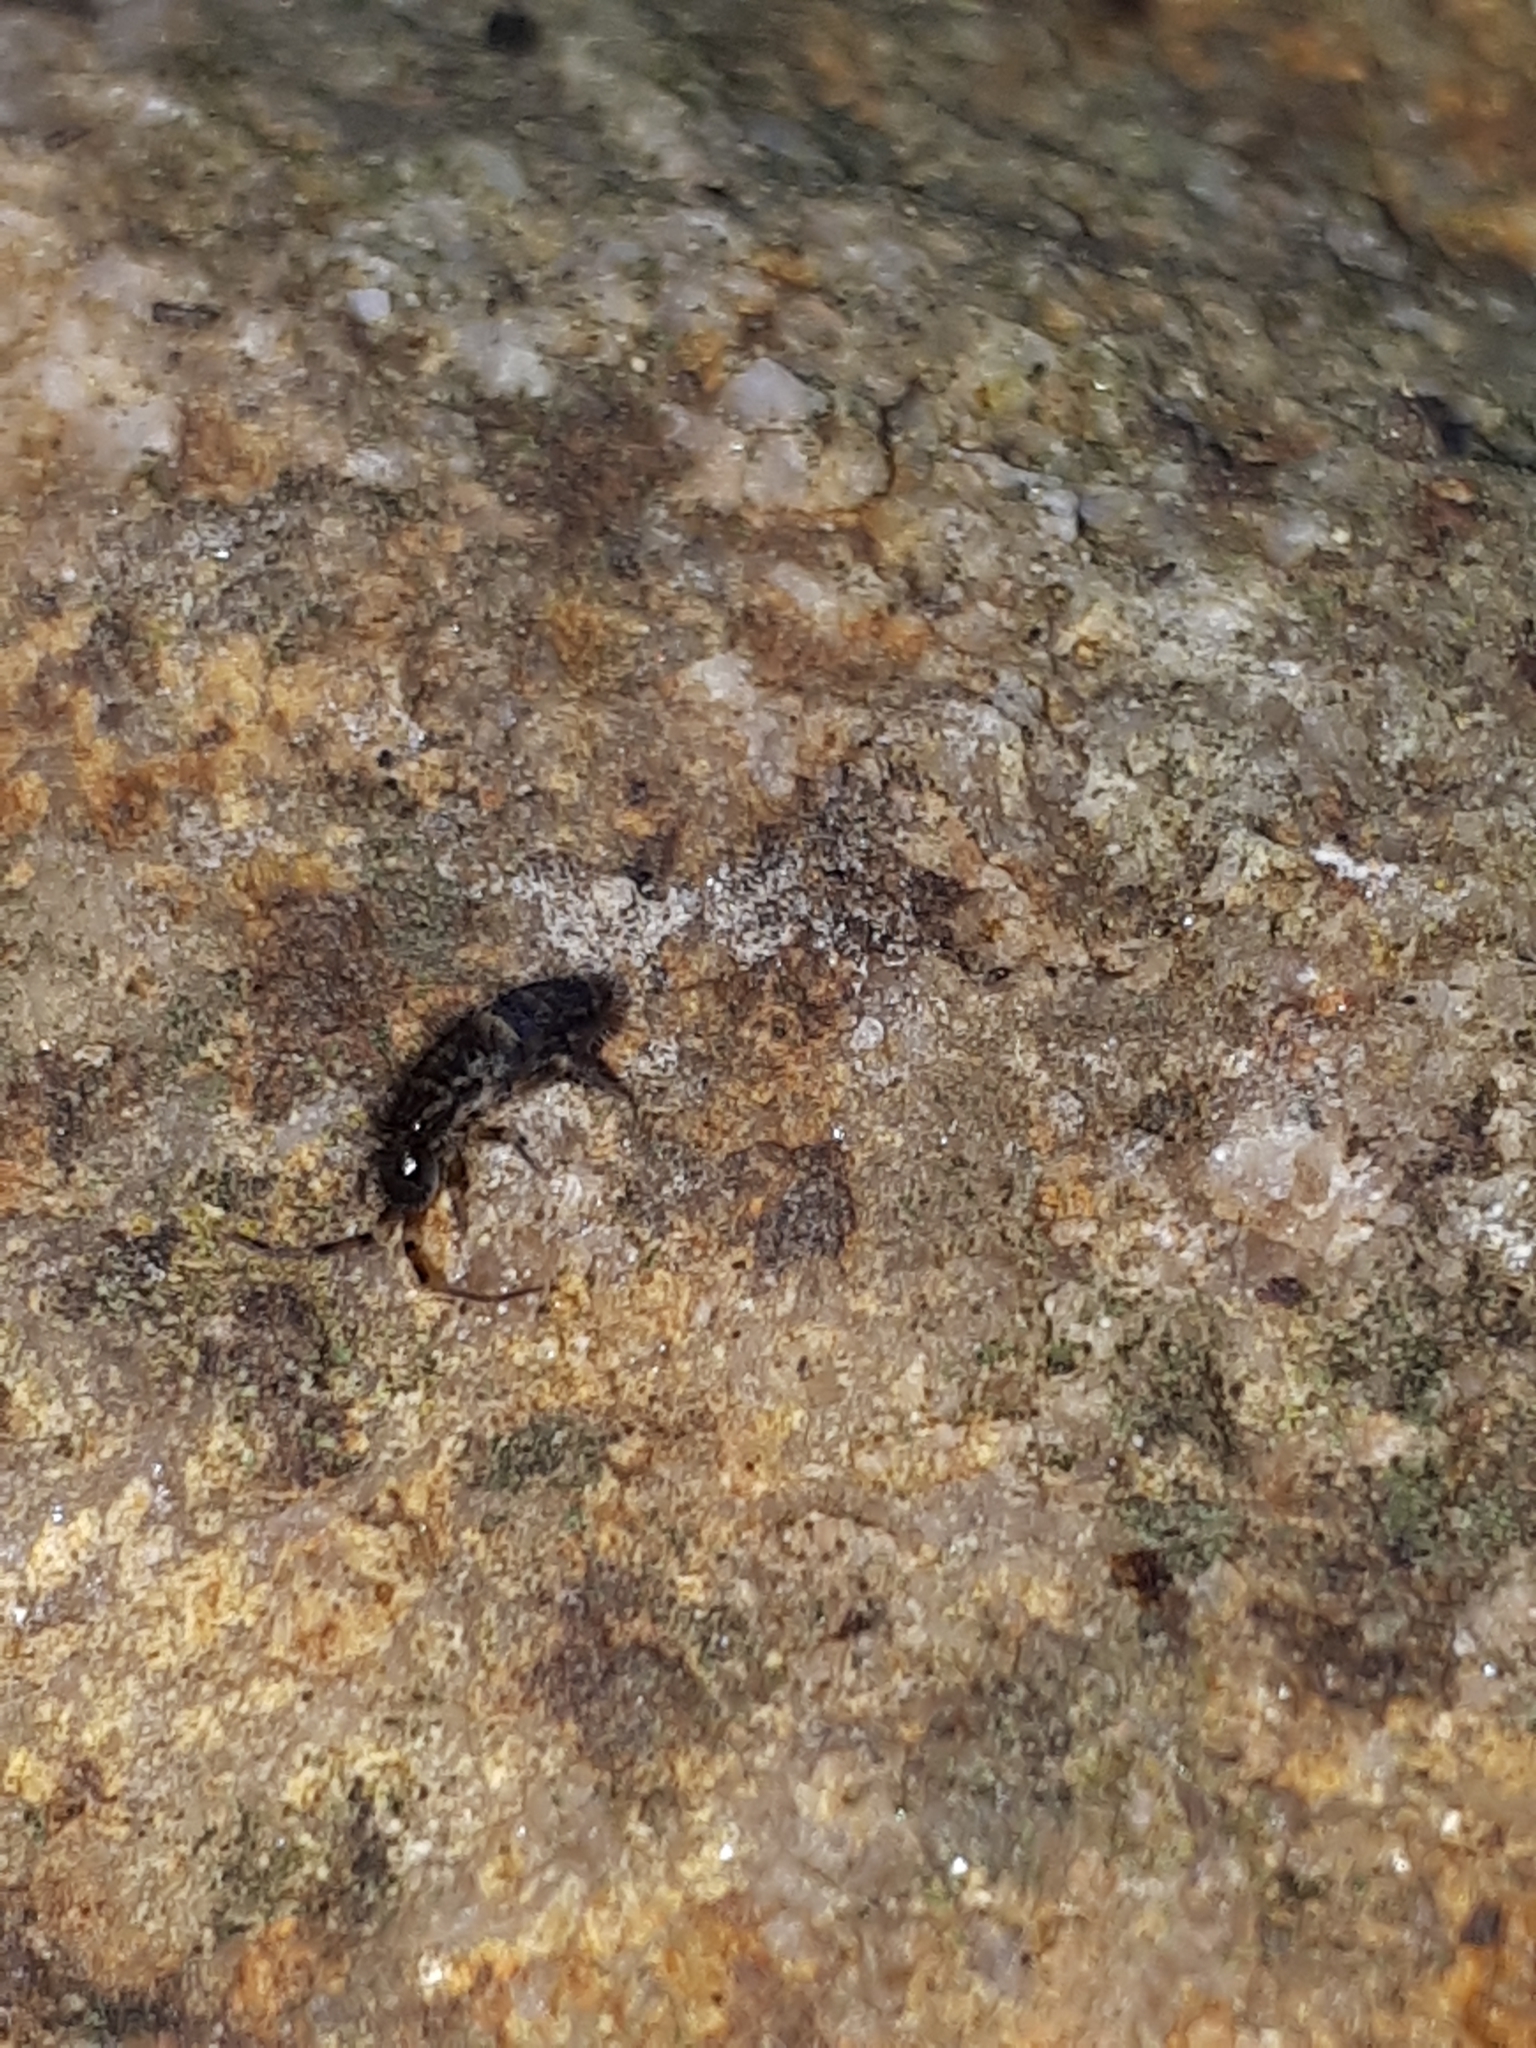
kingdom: Animalia
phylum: Arthropoda
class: Collembola
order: Entomobryomorpha
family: Orchesellidae
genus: Orchesella
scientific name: Orchesella cincta
